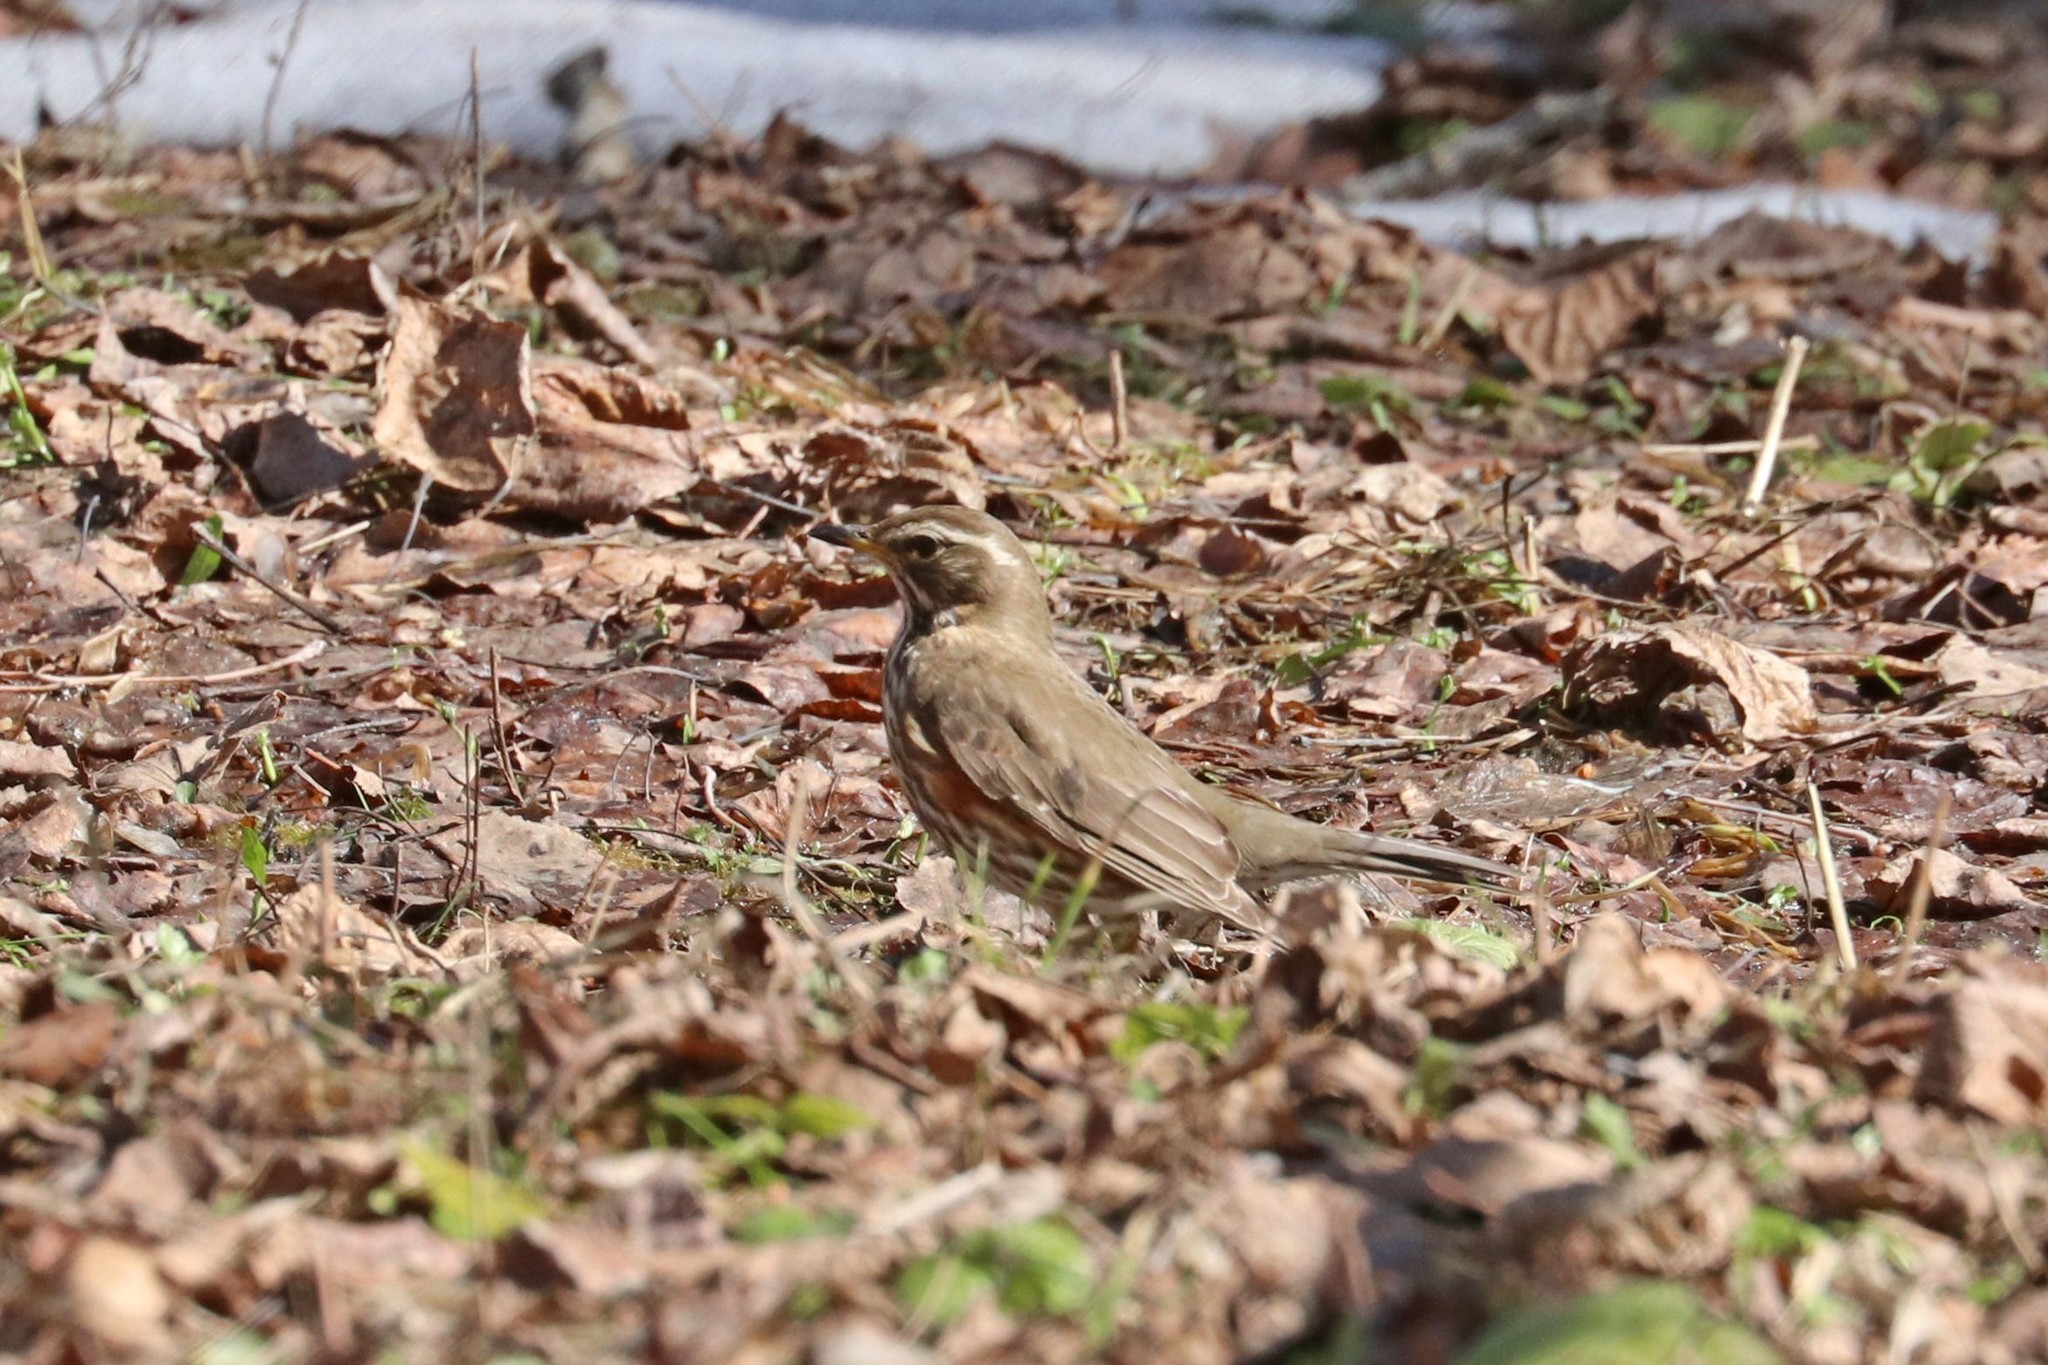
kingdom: Animalia
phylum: Chordata
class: Aves
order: Passeriformes
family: Turdidae
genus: Turdus
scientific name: Turdus iliacus
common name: Redwing
